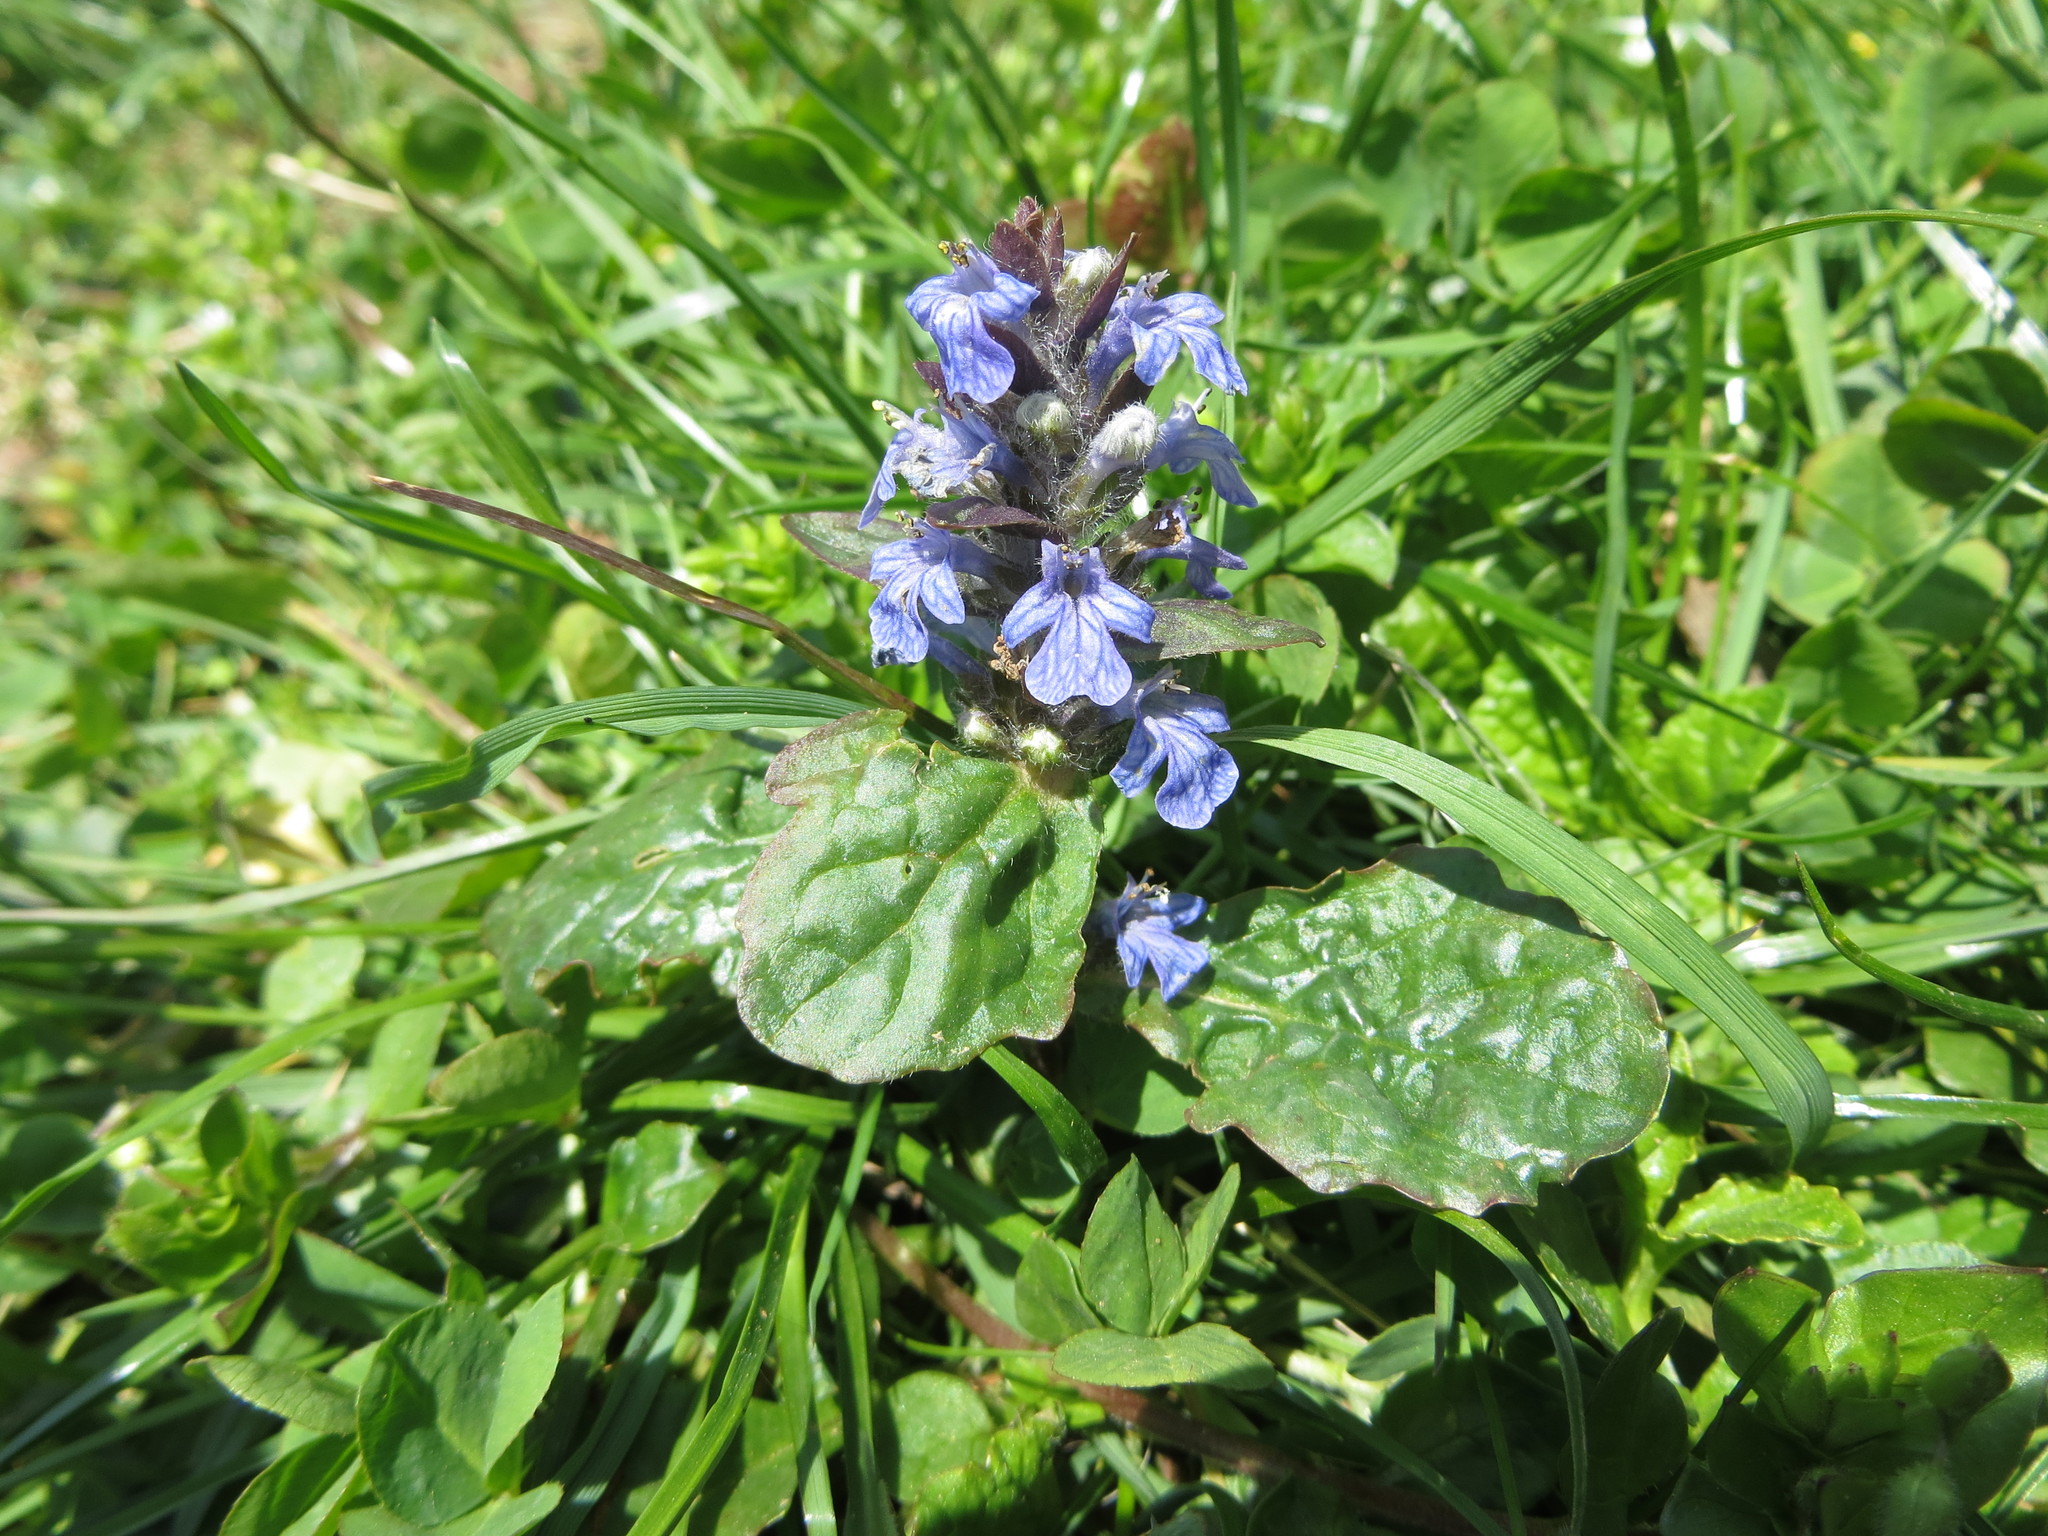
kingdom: Plantae
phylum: Tracheophyta
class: Magnoliopsida
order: Lamiales
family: Lamiaceae
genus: Ajuga
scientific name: Ajuga reptans
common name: Bugle
